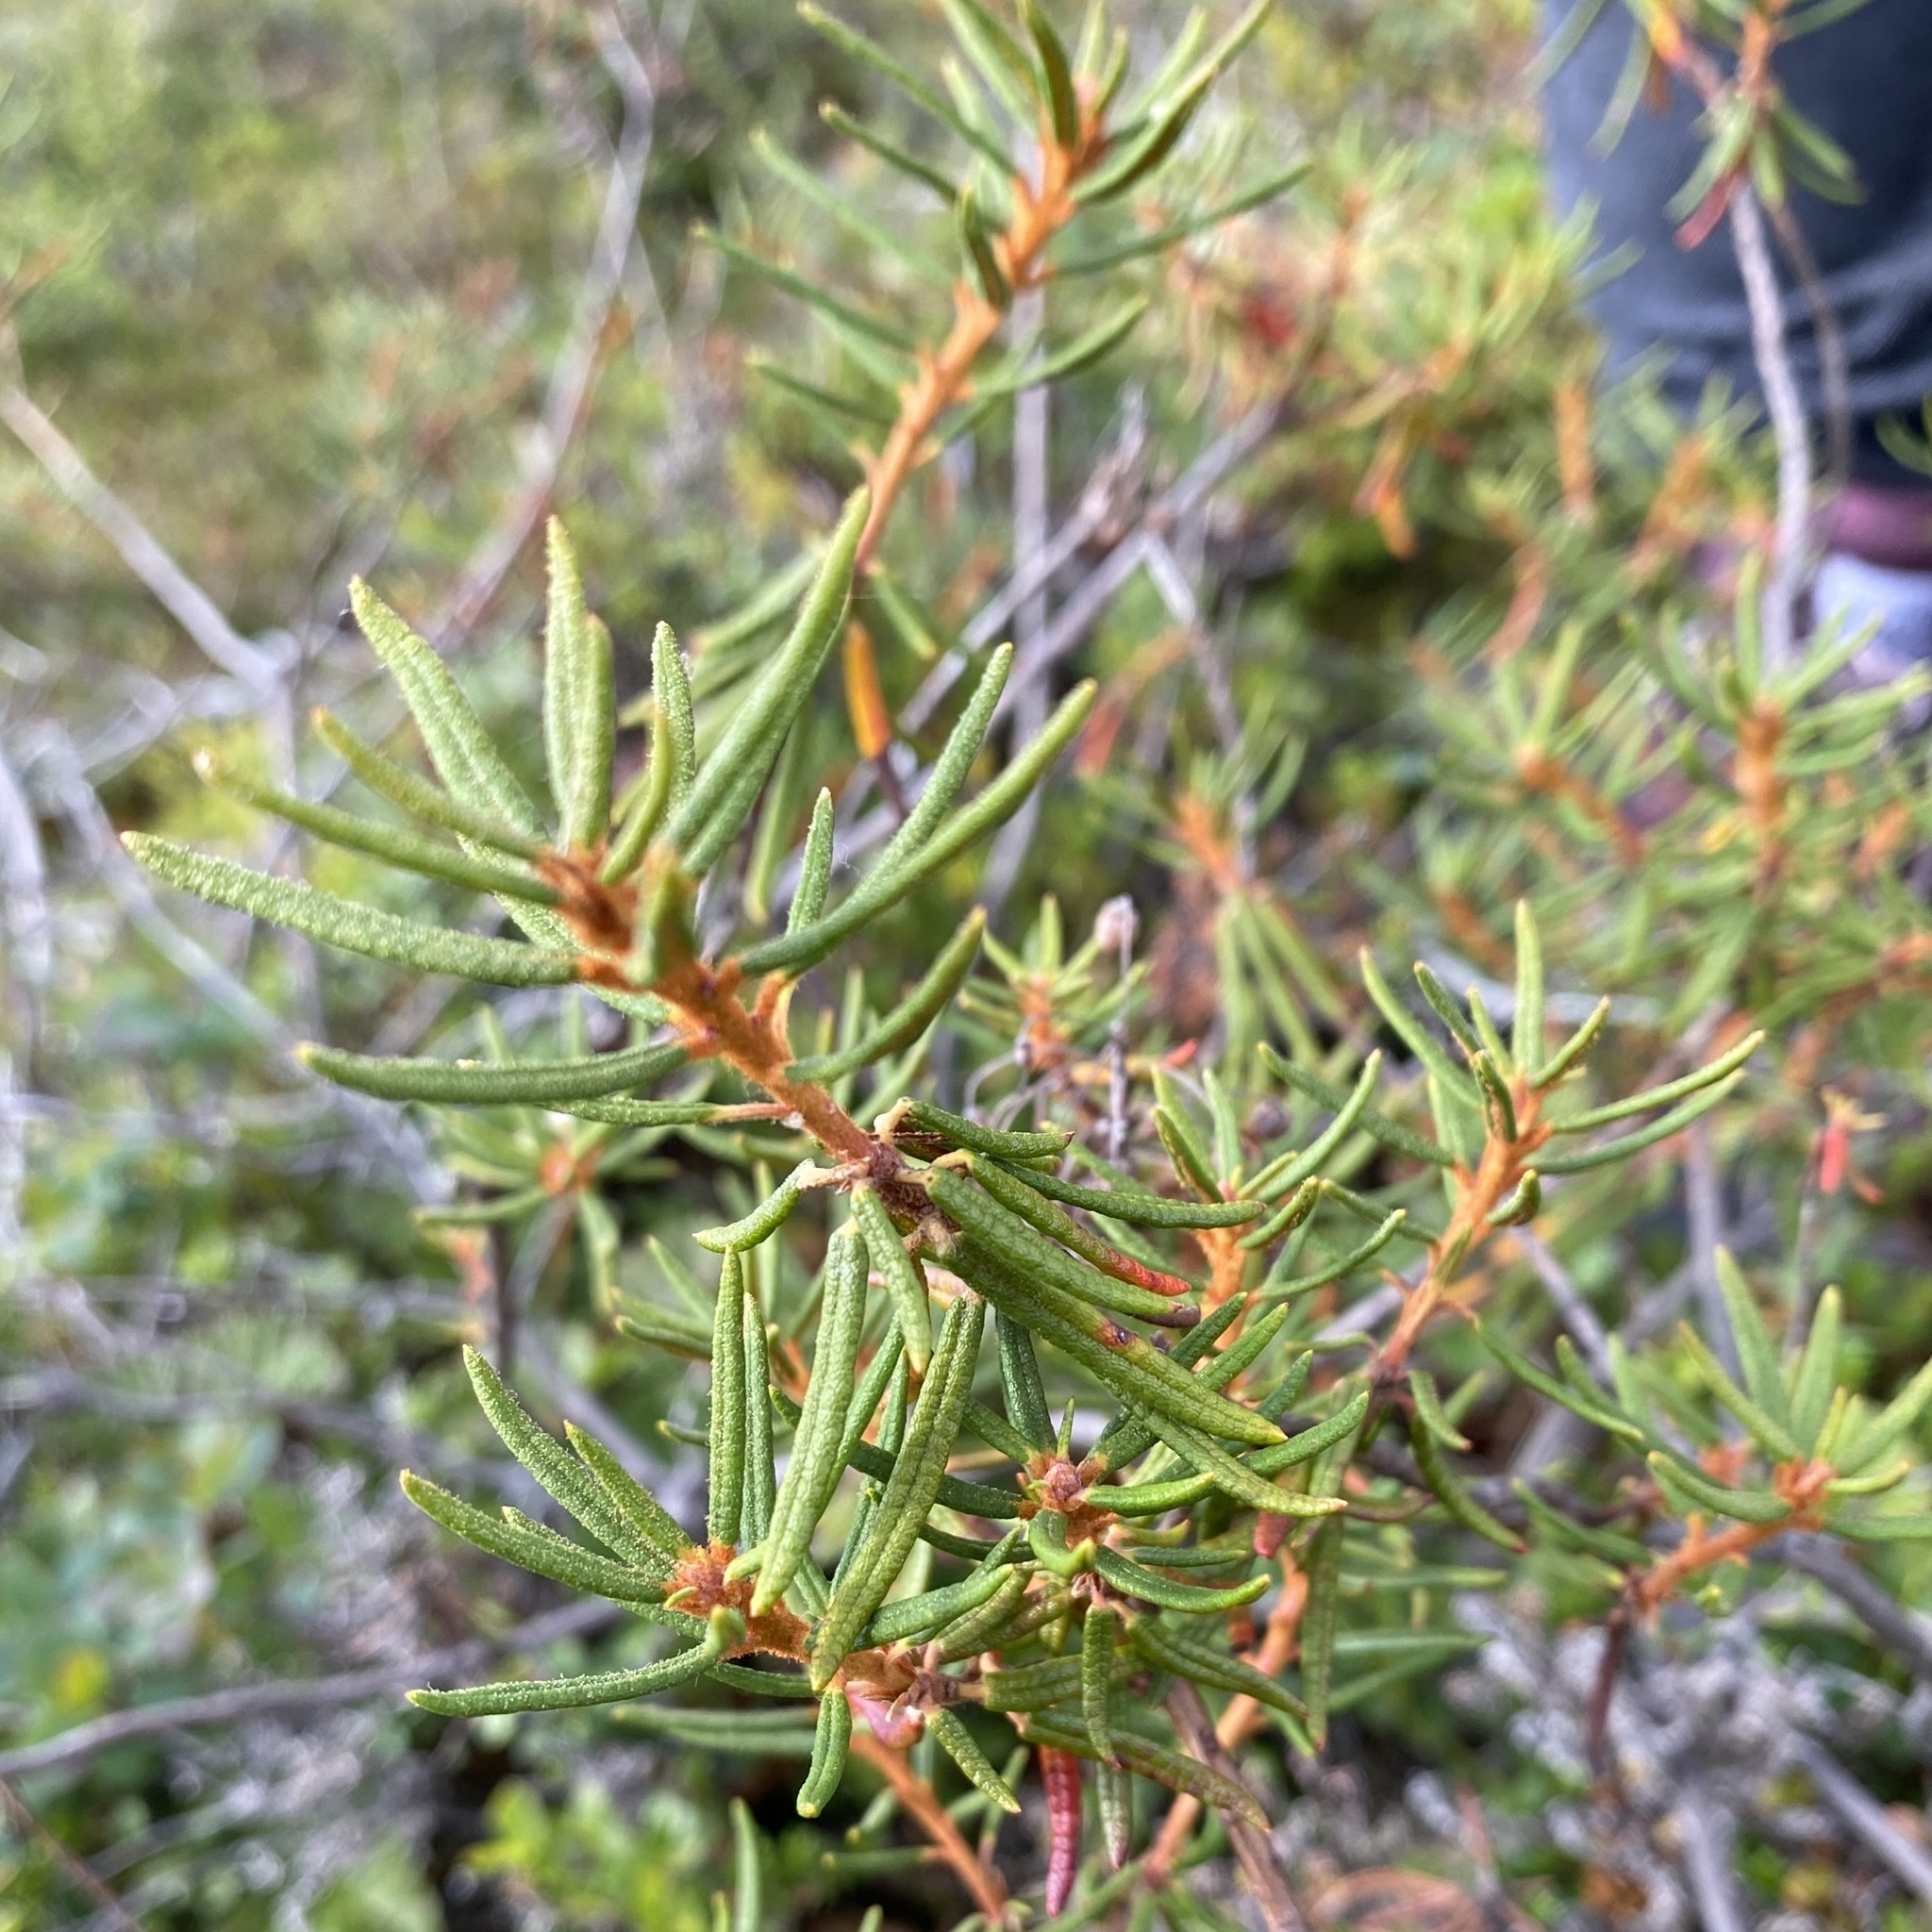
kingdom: Plantae
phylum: Tracheophyta
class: Magnoliopsida
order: Ericales
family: Ericaceae
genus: Rhododendron
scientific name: Rhododendron tomentosum
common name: Marsh labrador tea
